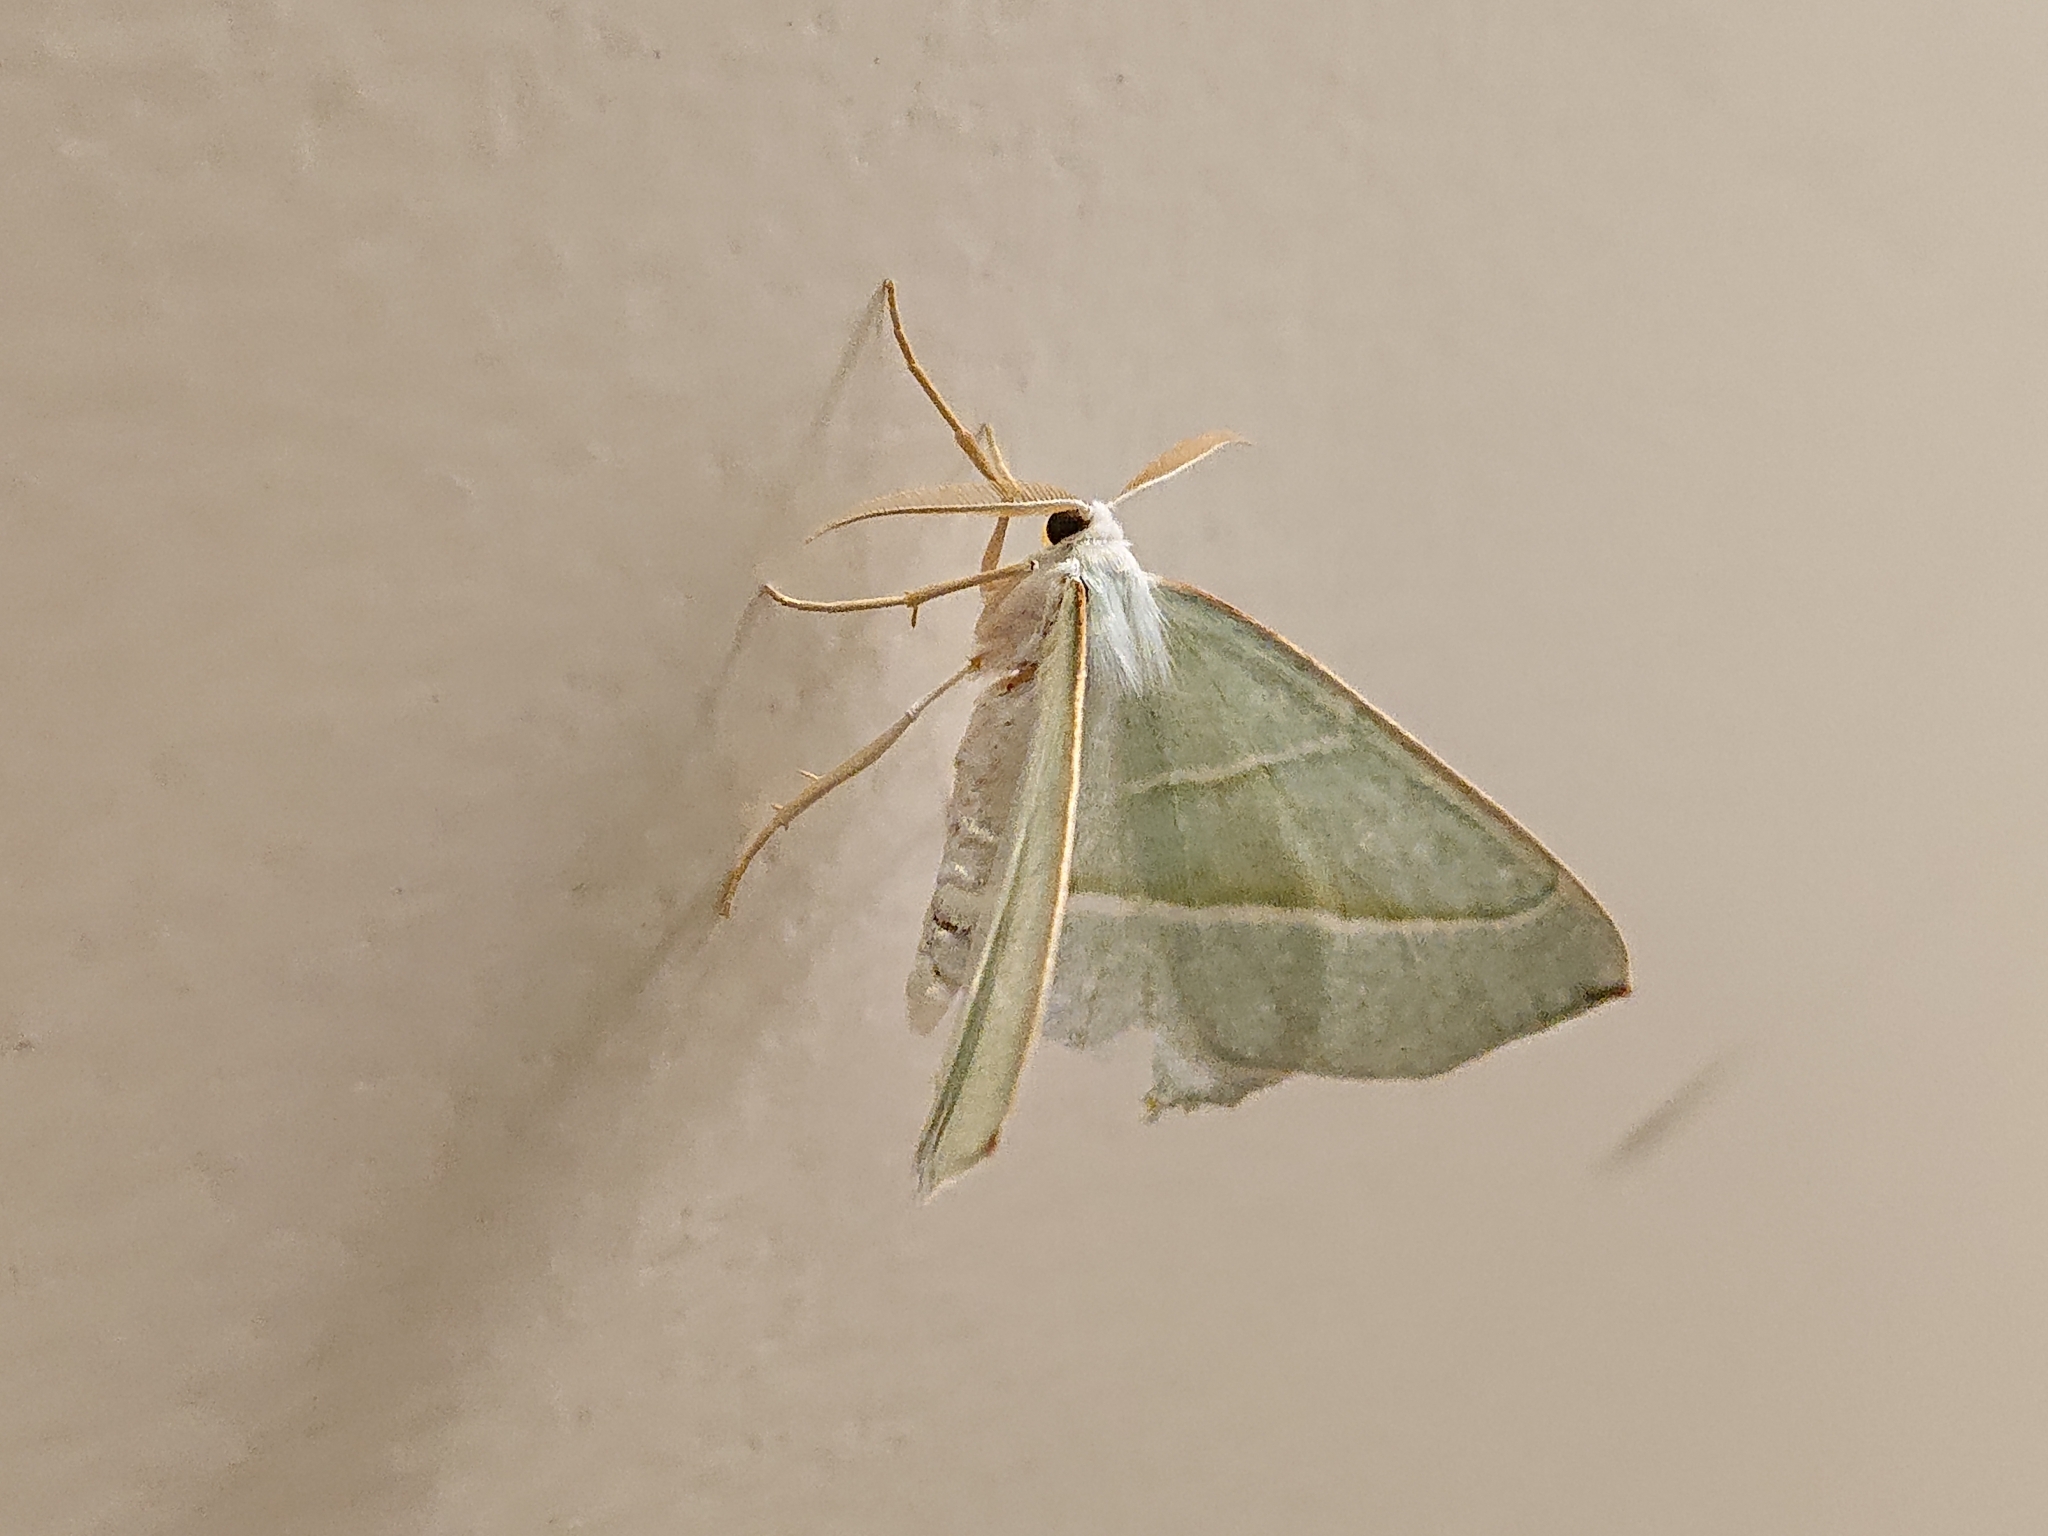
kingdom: Animalia
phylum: Arthropoda
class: Insecta
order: Lepidoptera
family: Geometridae
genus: Campaea
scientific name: Campaea margaritaria
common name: Light emerald
